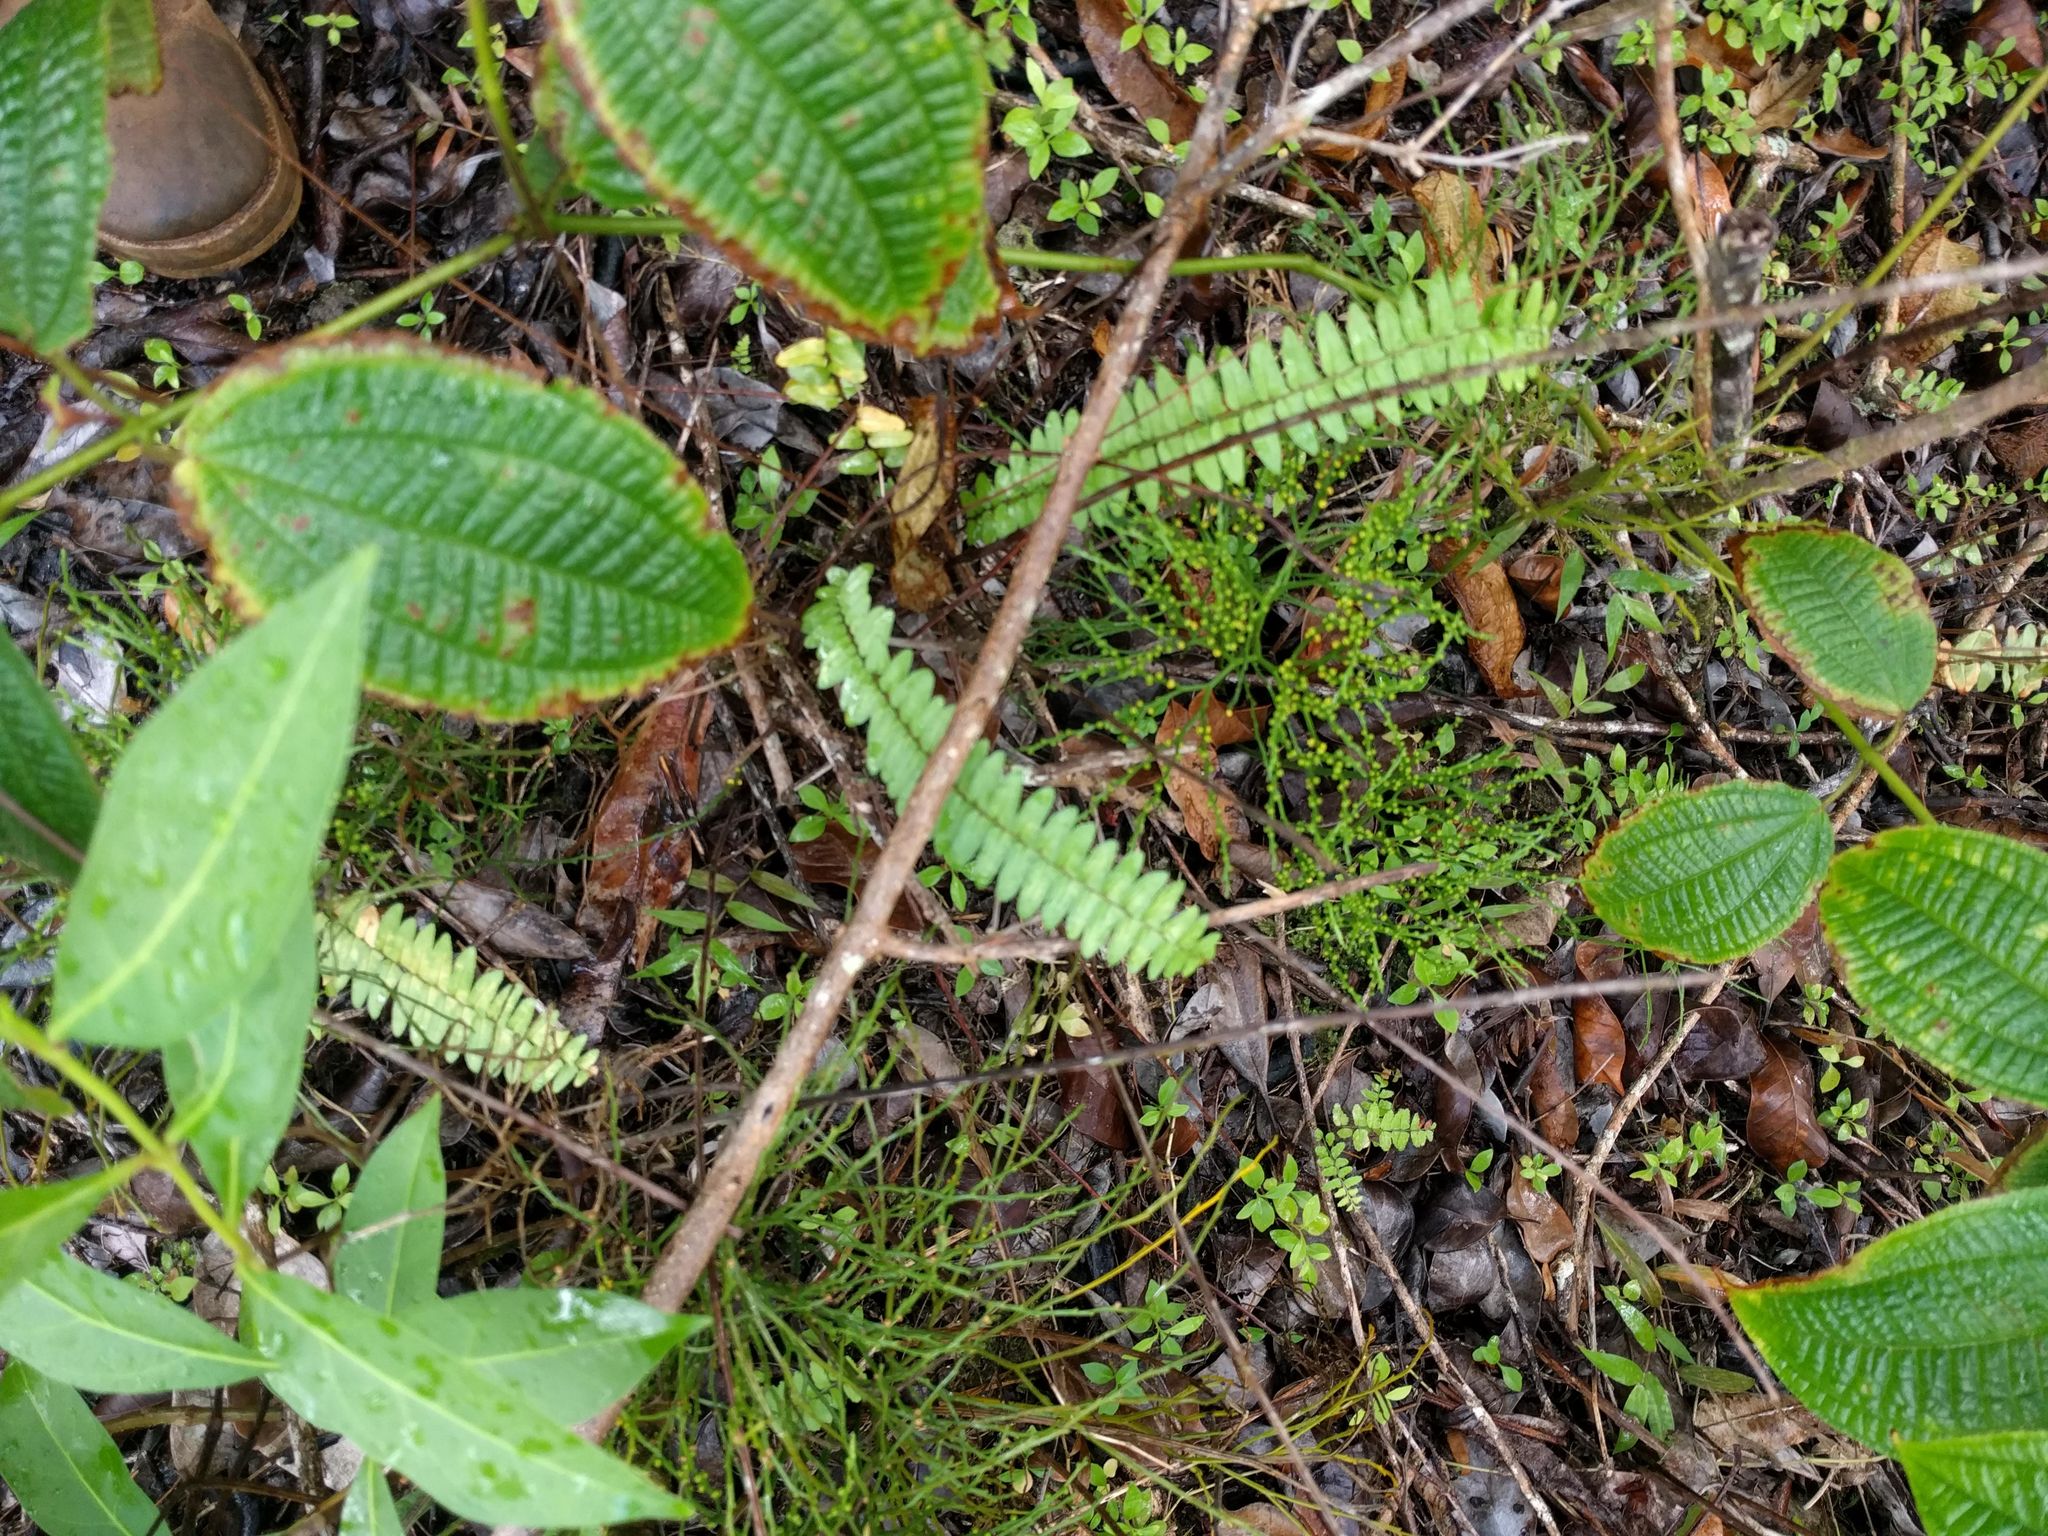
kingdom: Plantae
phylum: Tracheophyta
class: Magnoliopsida
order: Myrtales
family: Melastomataceae
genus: Miconia
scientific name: Miconia crenata
